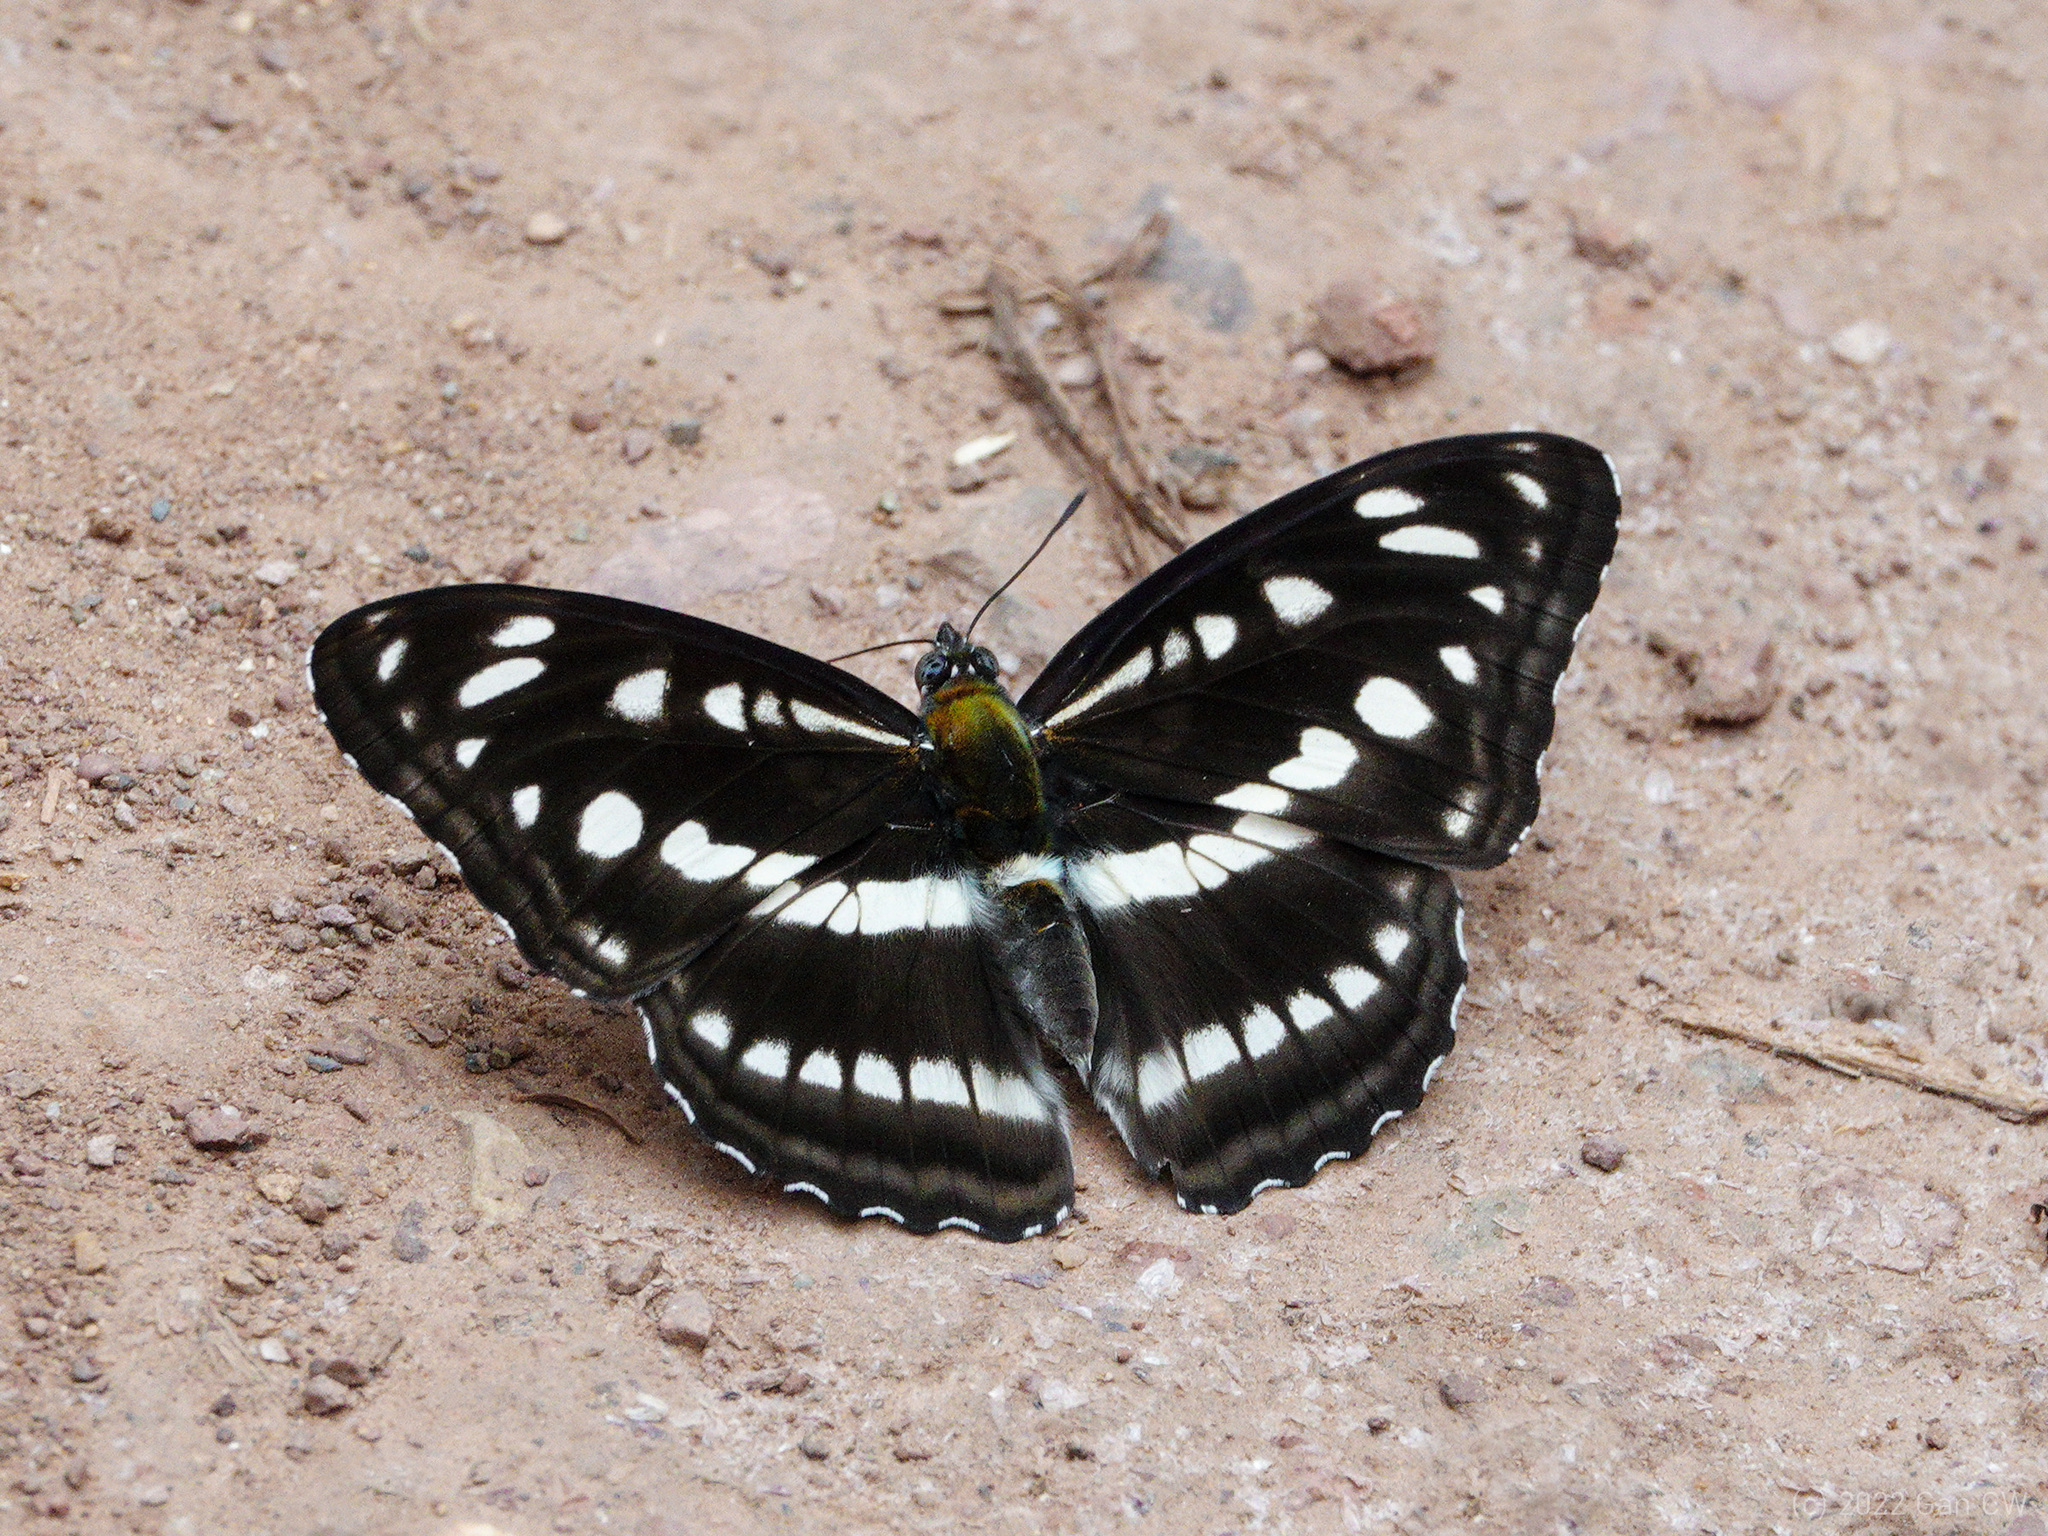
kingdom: Animalia
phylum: Arthropoda
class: Insecta
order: Lepidoptera
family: Nymphalidae
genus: Parathyma
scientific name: Parathyma opalina
